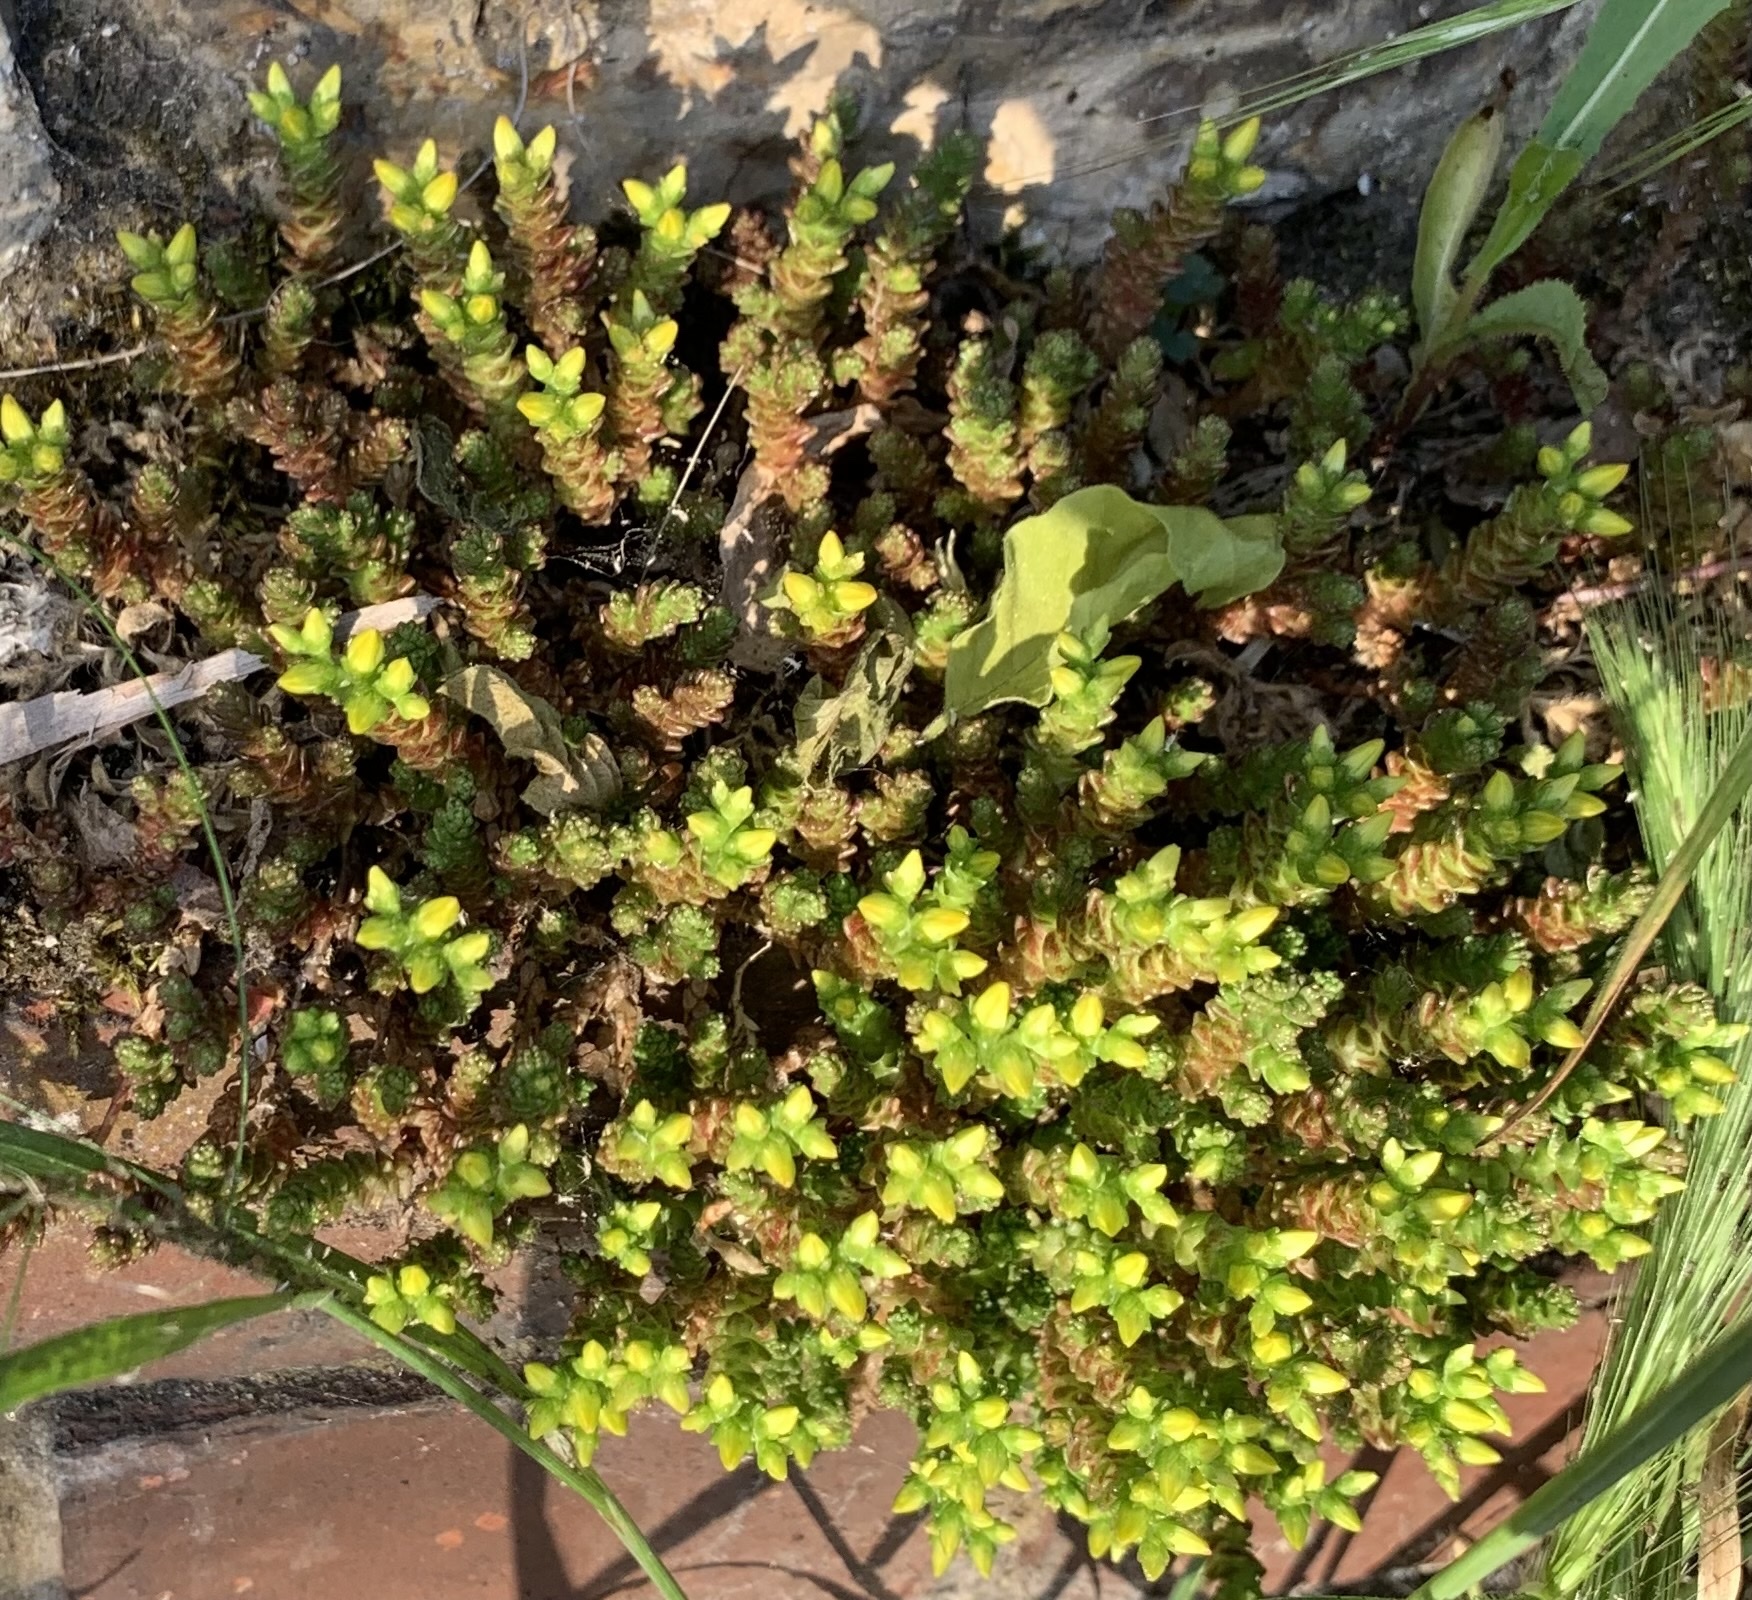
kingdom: Plantae
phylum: Tracheophyta
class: Magnoliopsida
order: Saxifragales
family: Crassulaceae
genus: Sedum
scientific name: Sedum acre
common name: Biting stonecrop
